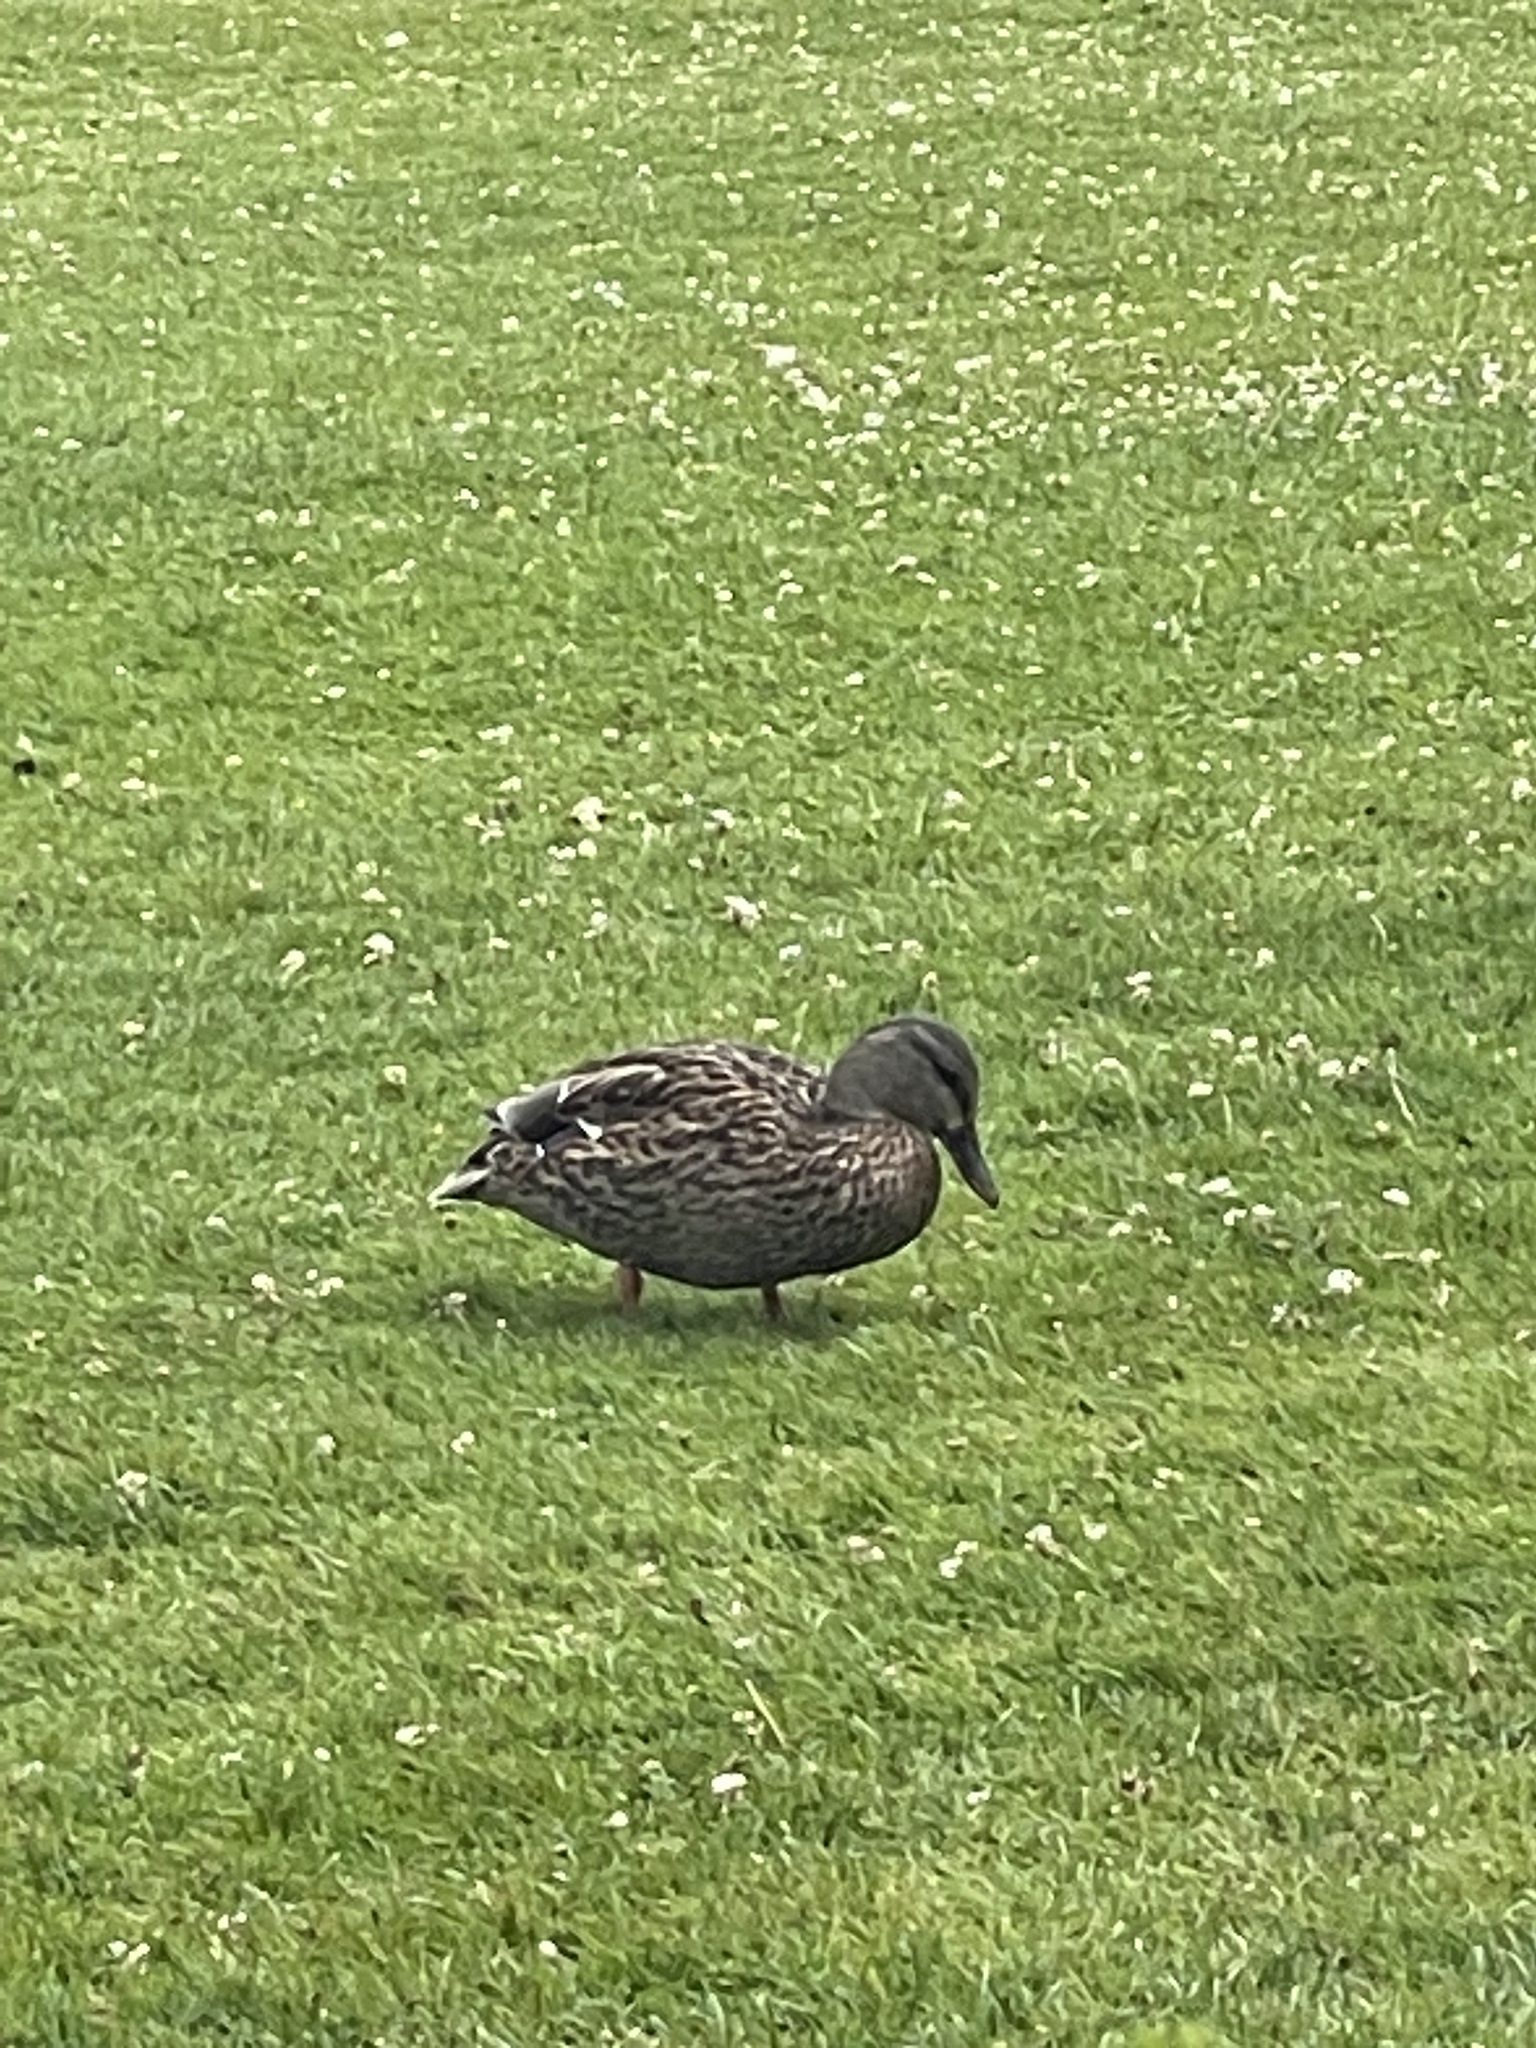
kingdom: Animalia
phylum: Chordata
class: Aves
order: Anseriformes
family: Anatidae
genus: Anas
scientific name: Anas platyrhynchos
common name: Mallard
